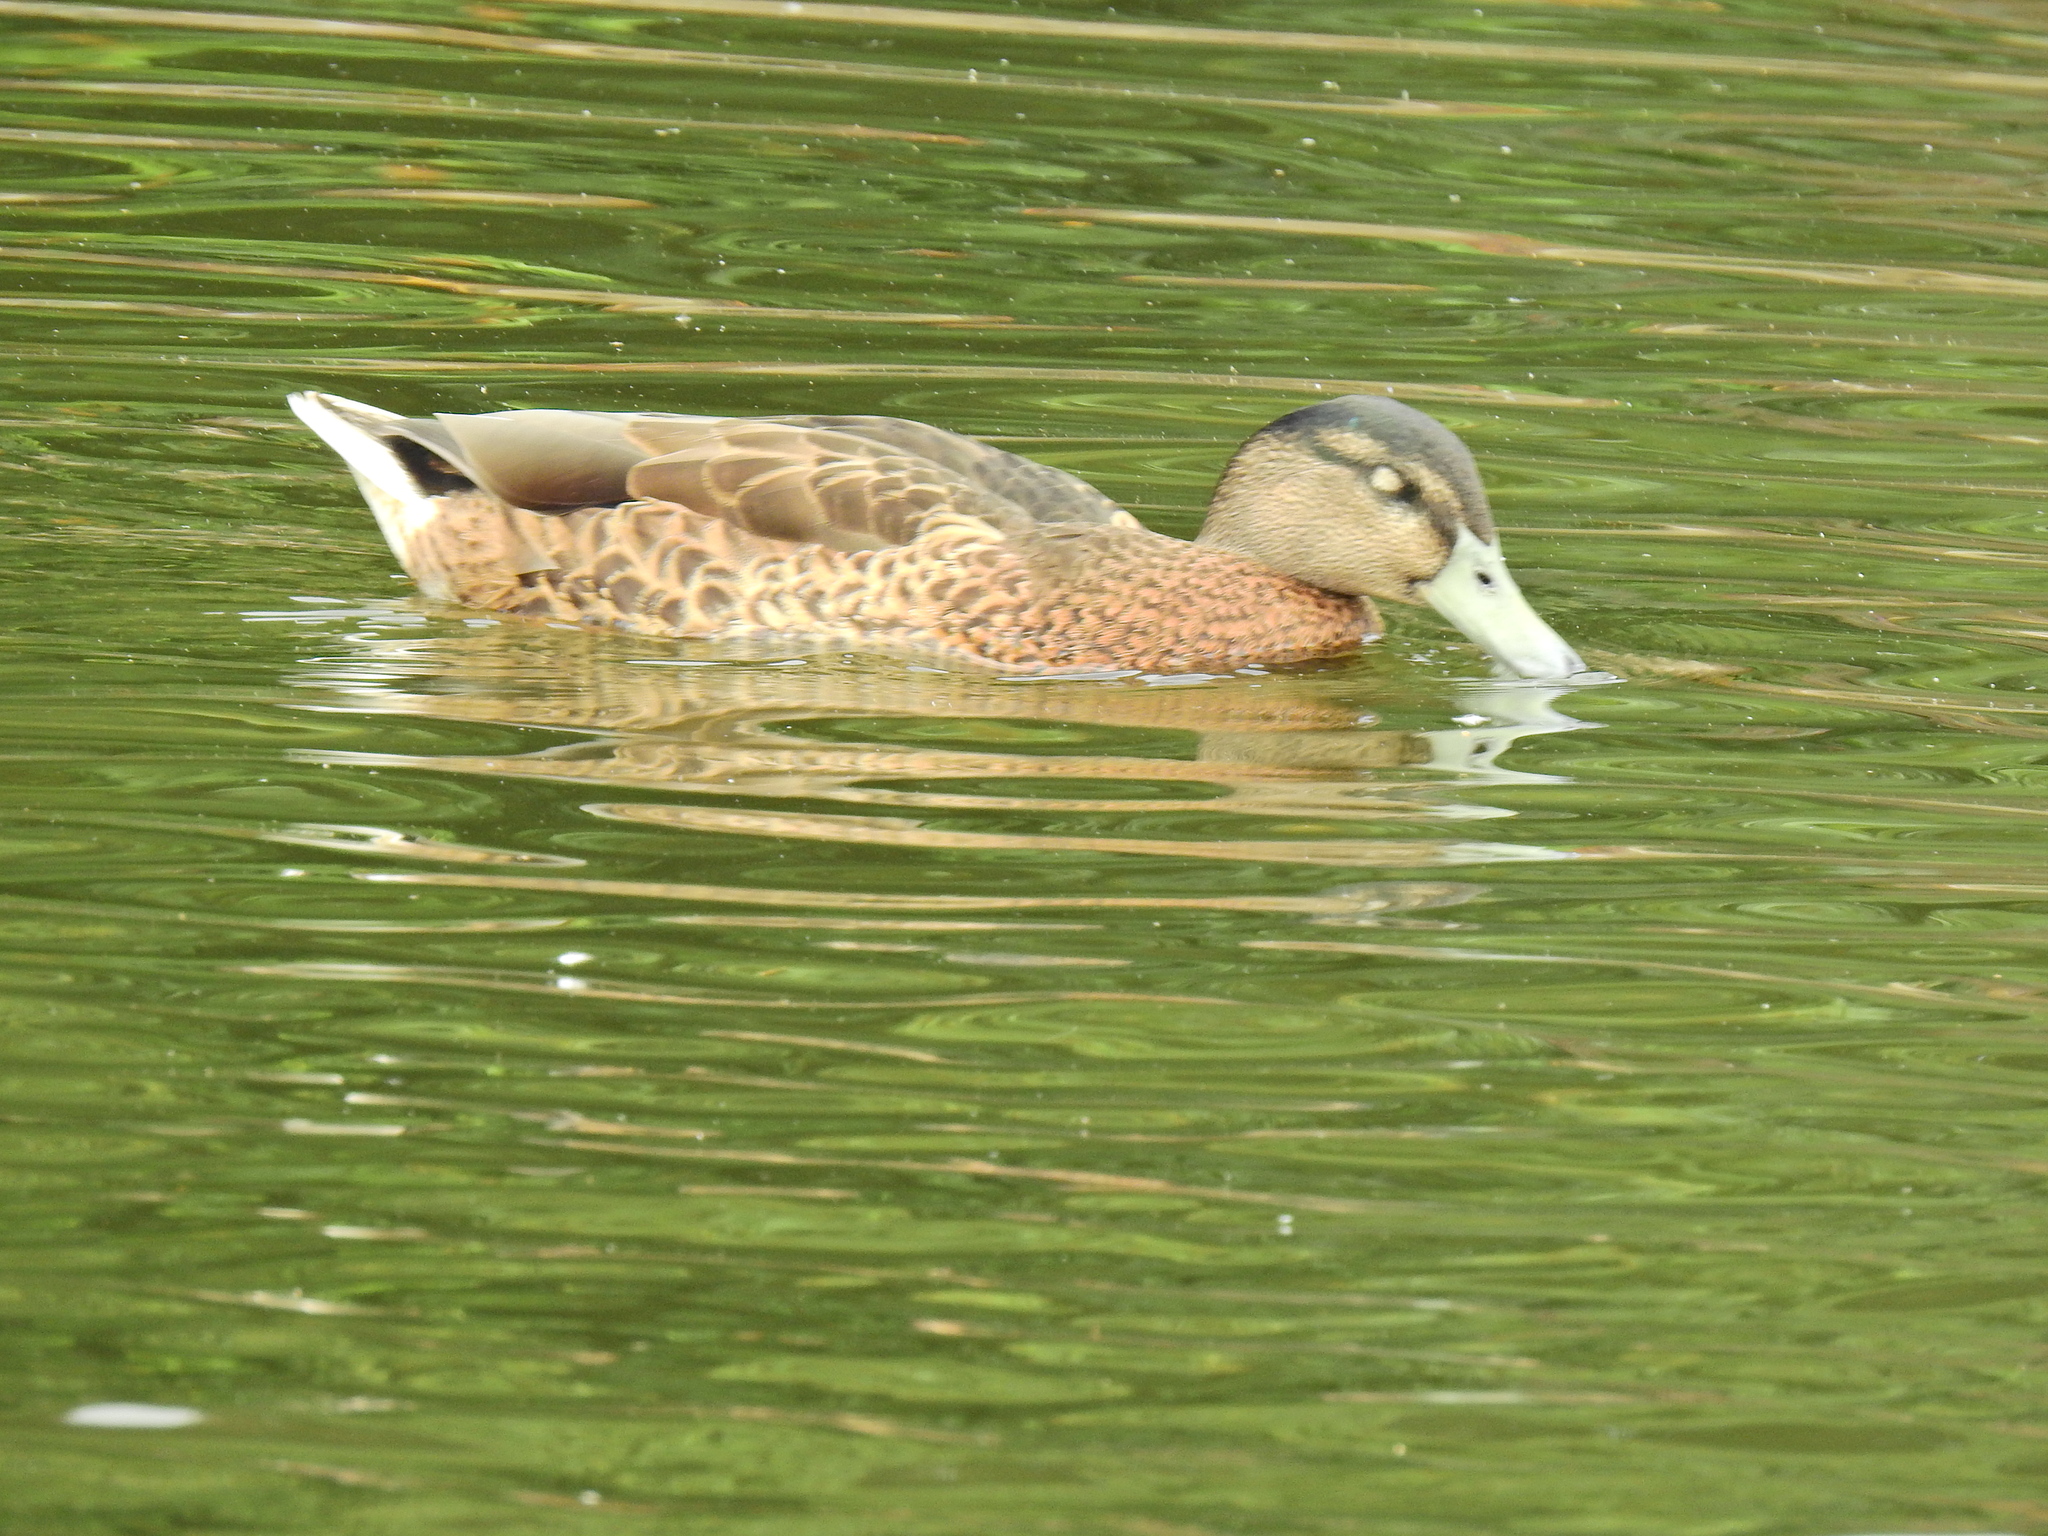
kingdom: Animalia
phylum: Chordata
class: Aves
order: Anseriformes
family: Anatidae
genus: Anas
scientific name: Anas platyrhynchos
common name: Mallard
